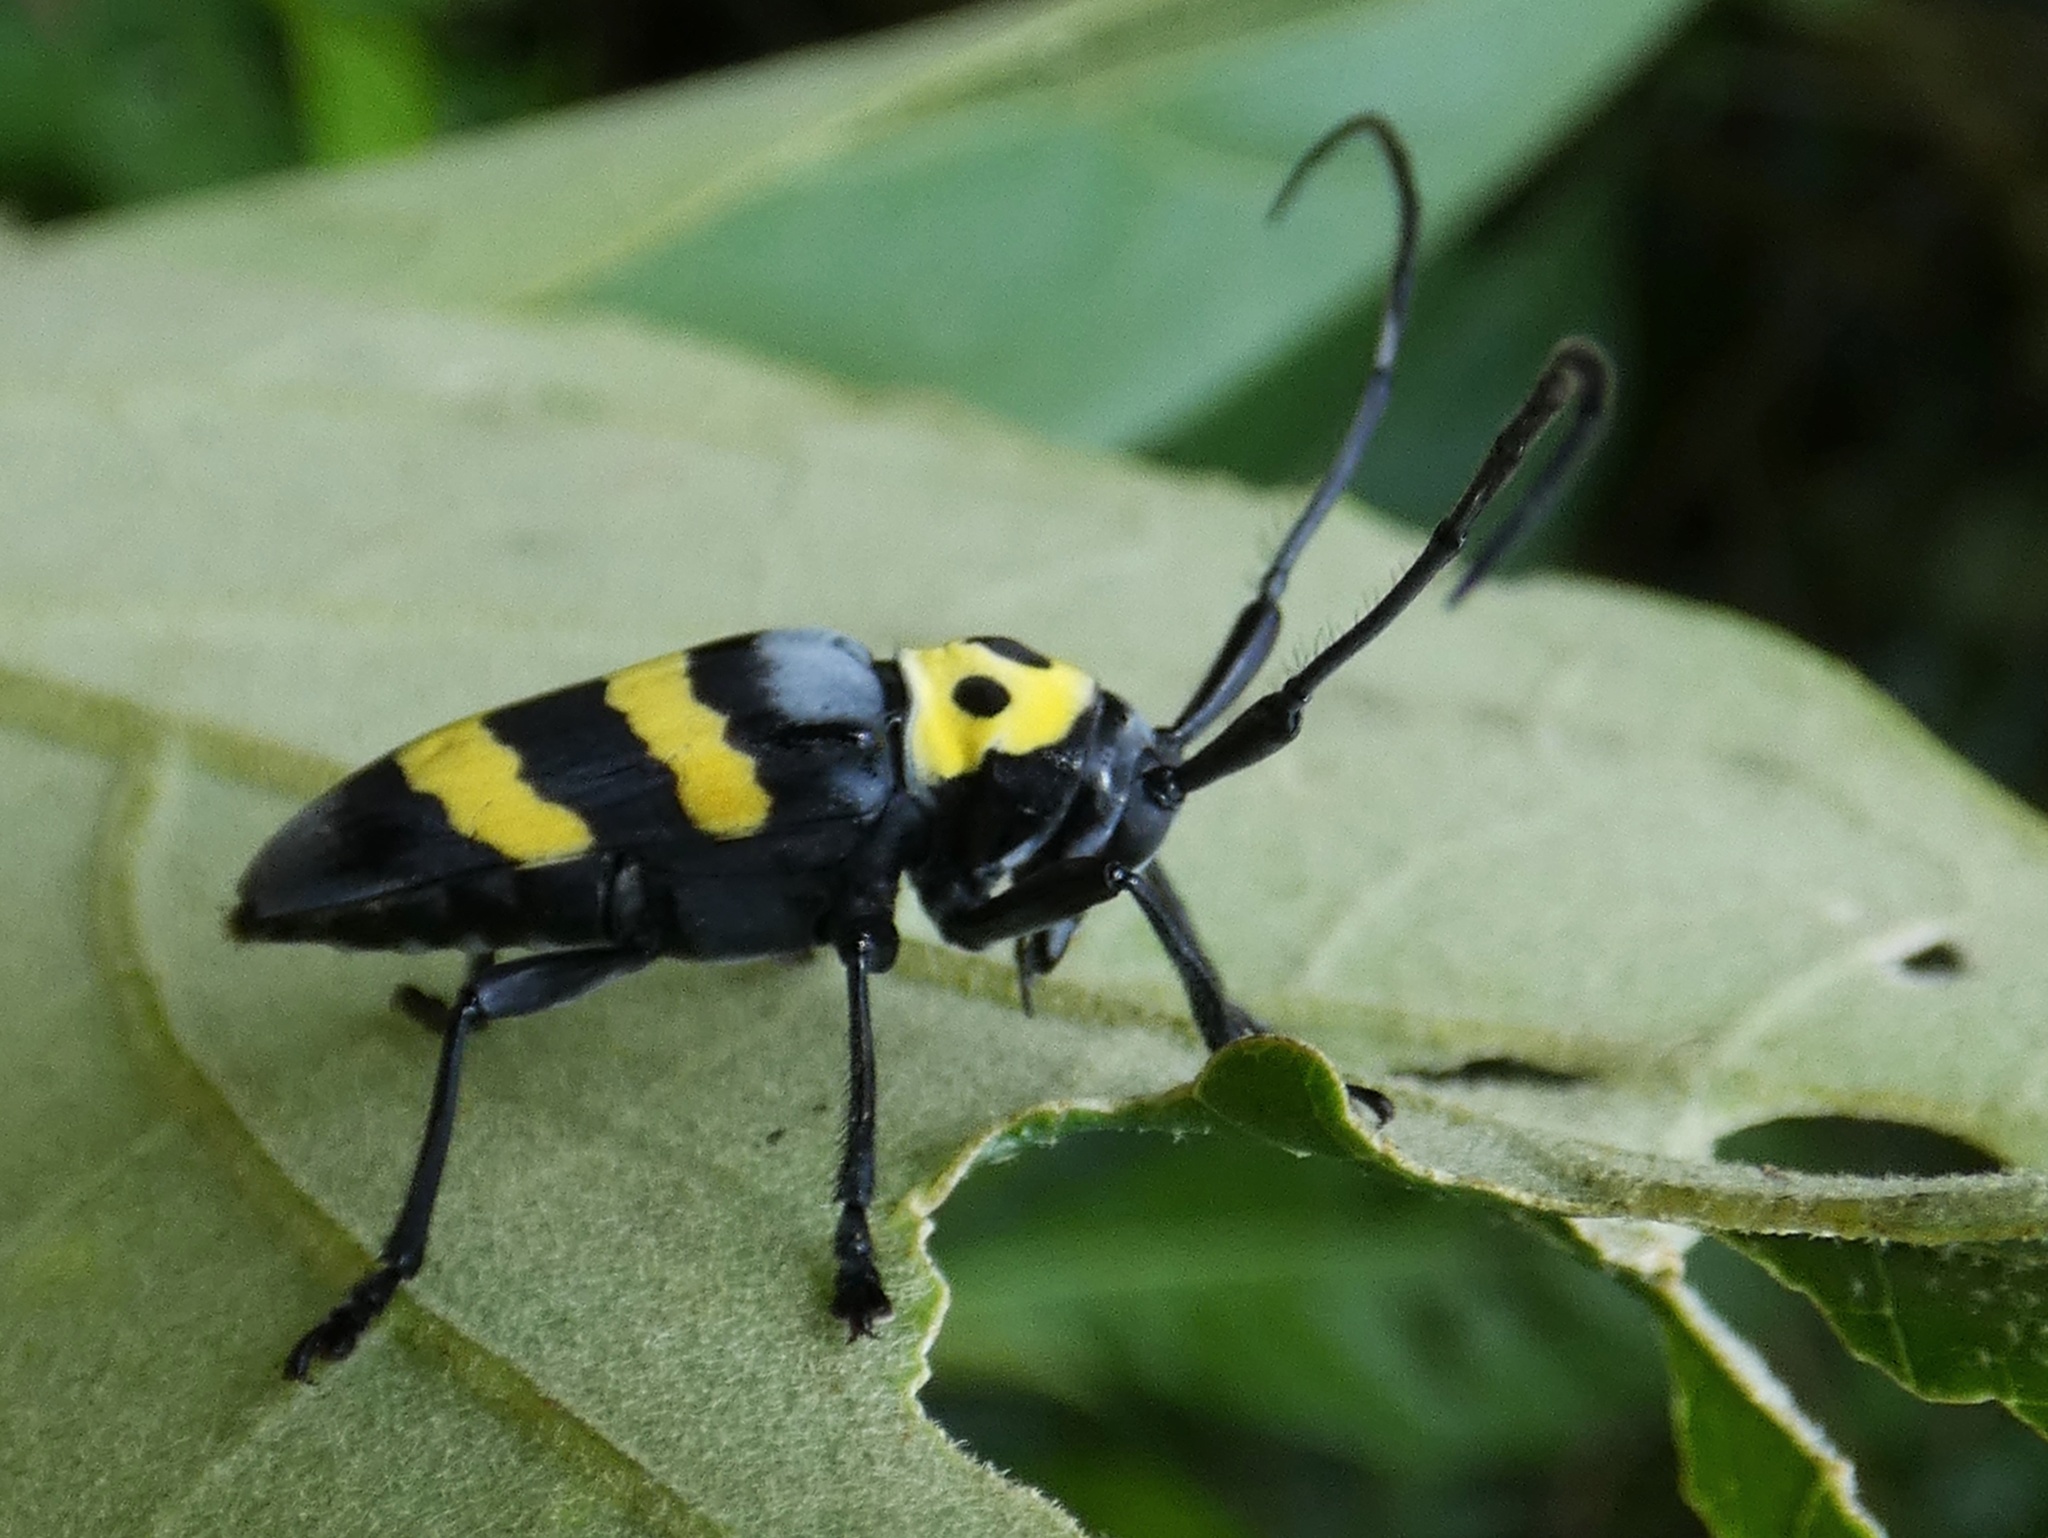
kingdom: Animalia
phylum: Arthropoda
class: Insecta
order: Coleoptera
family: Cerambycidae
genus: Oedudes
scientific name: Oedudes spectabilis
